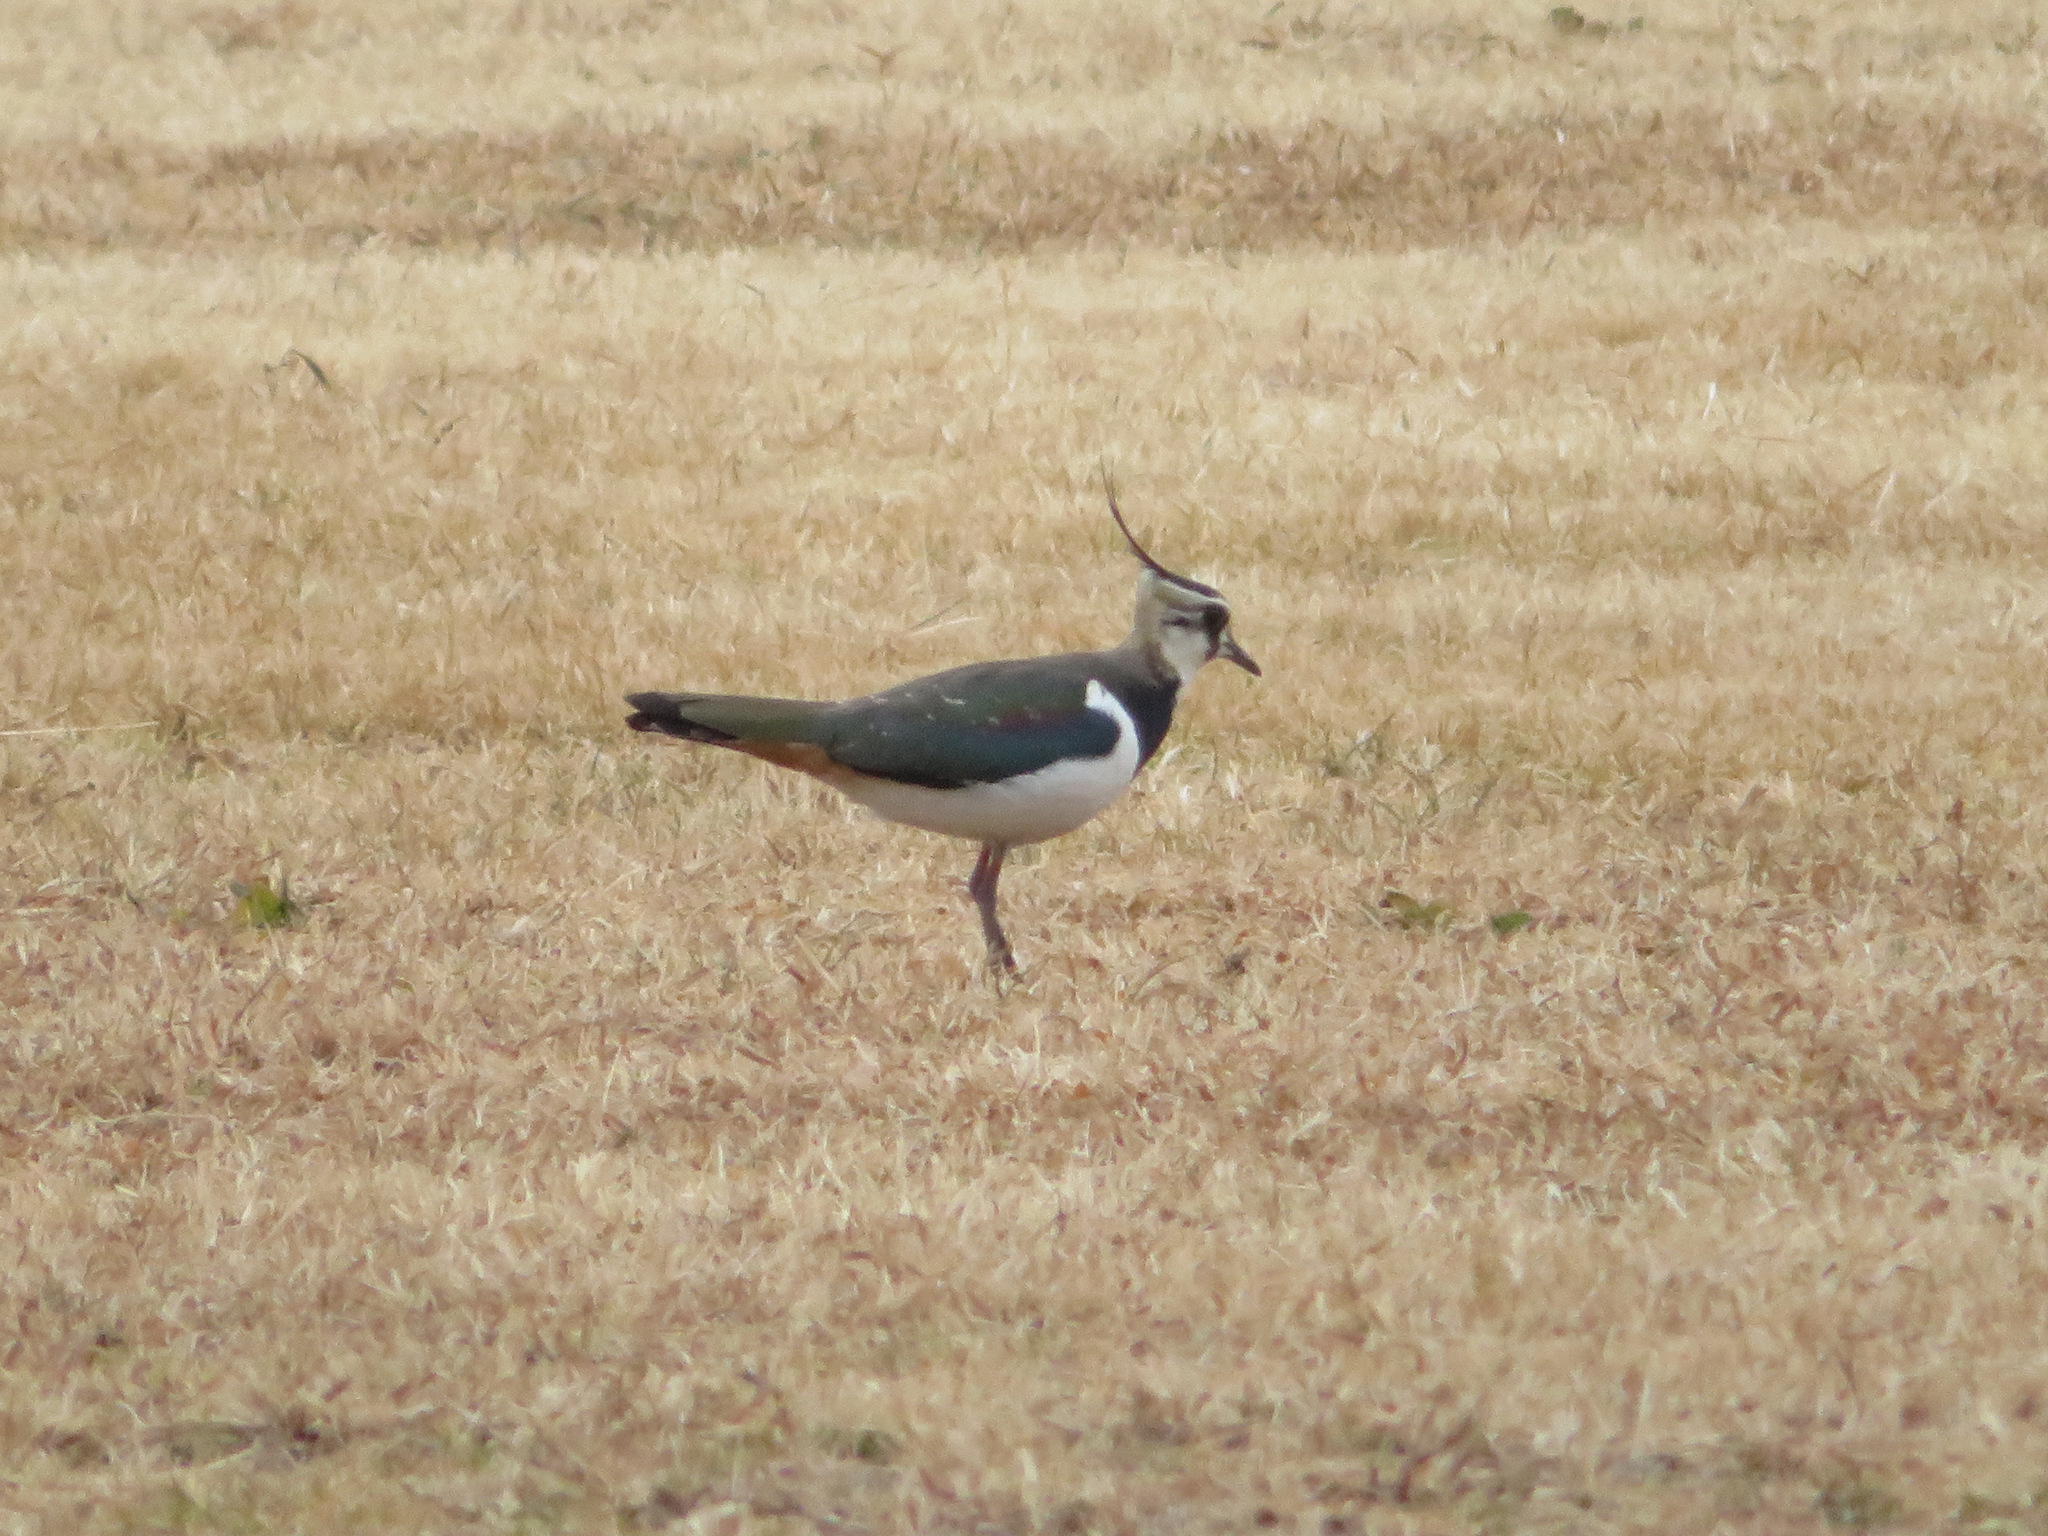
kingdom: Animalia
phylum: Chordata
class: Aves
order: Charadriiformes
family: Charadriidae
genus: Vanellus
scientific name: Vanellus vanellus
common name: Northern lapwing
